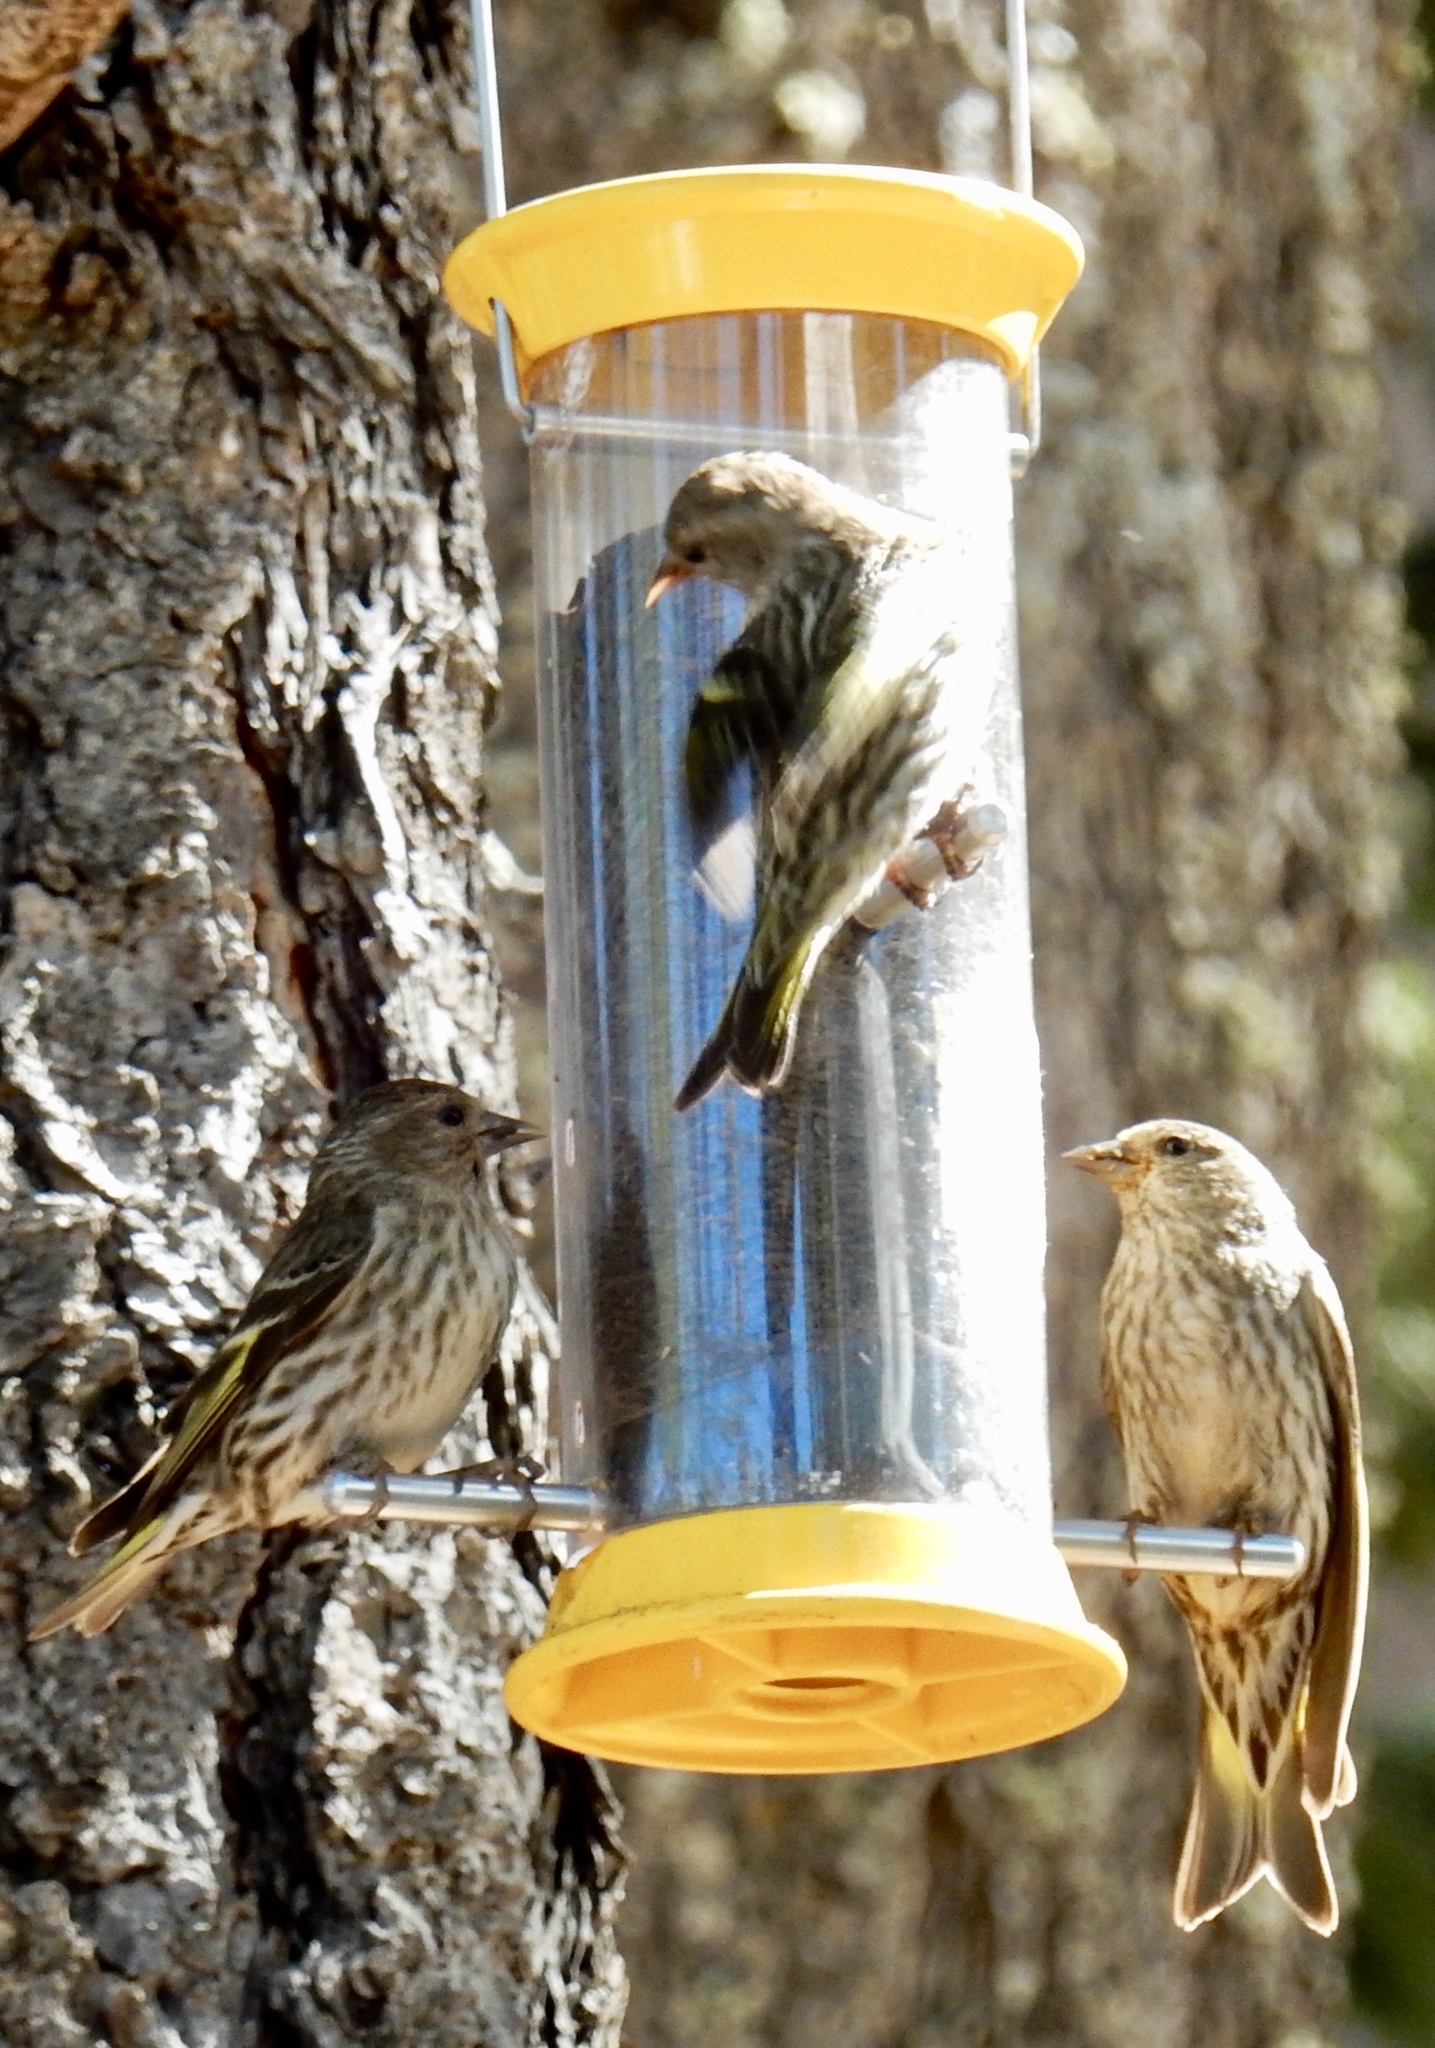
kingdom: Animalia
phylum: Chordata
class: Aves
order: Passeriformes
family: Fringillidae
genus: Spinus
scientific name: Spinus pinus
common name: Pine siskin
